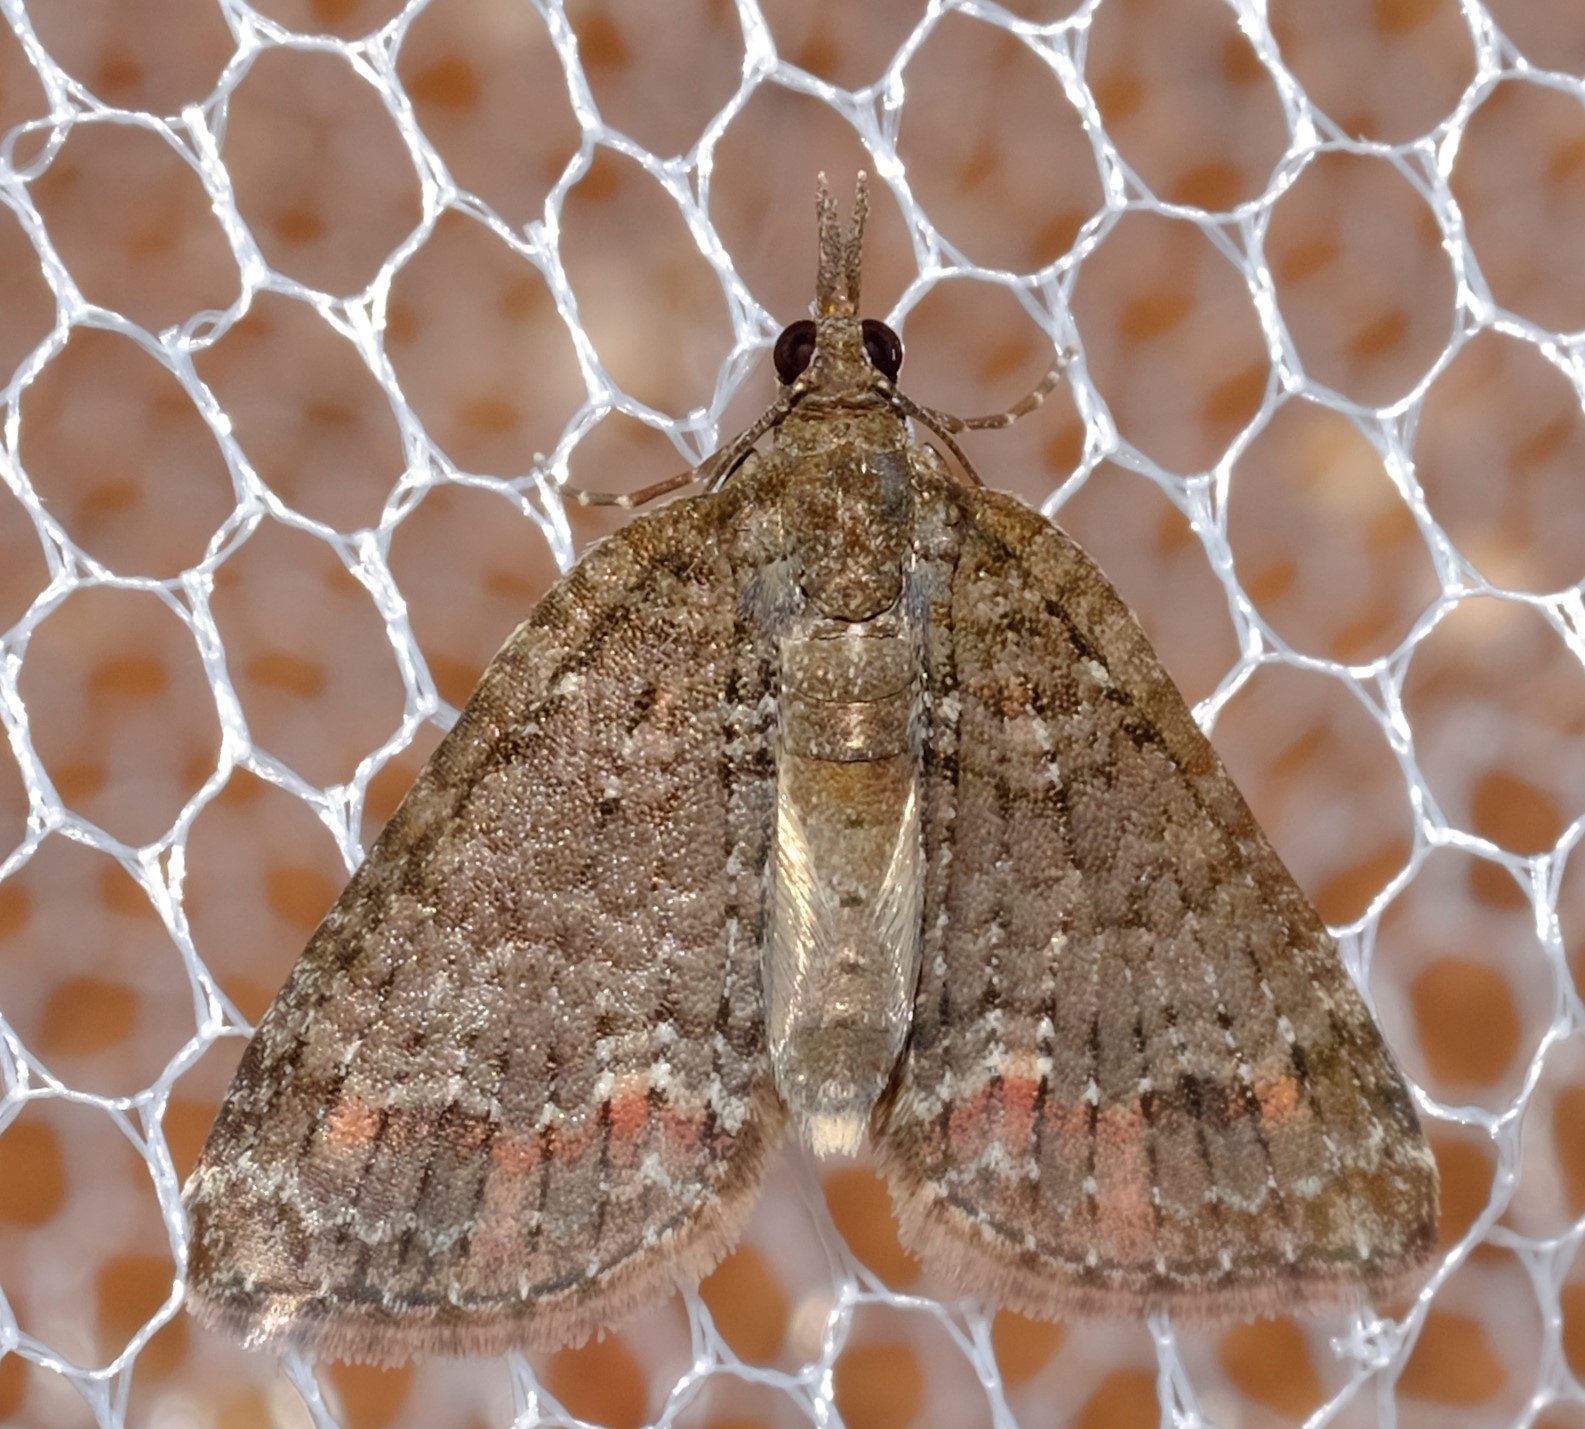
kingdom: Animalia
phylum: Arthropoda
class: Insecta
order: Lepidoptera
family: Geometridae
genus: Microdes
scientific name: Microdes squamulata
